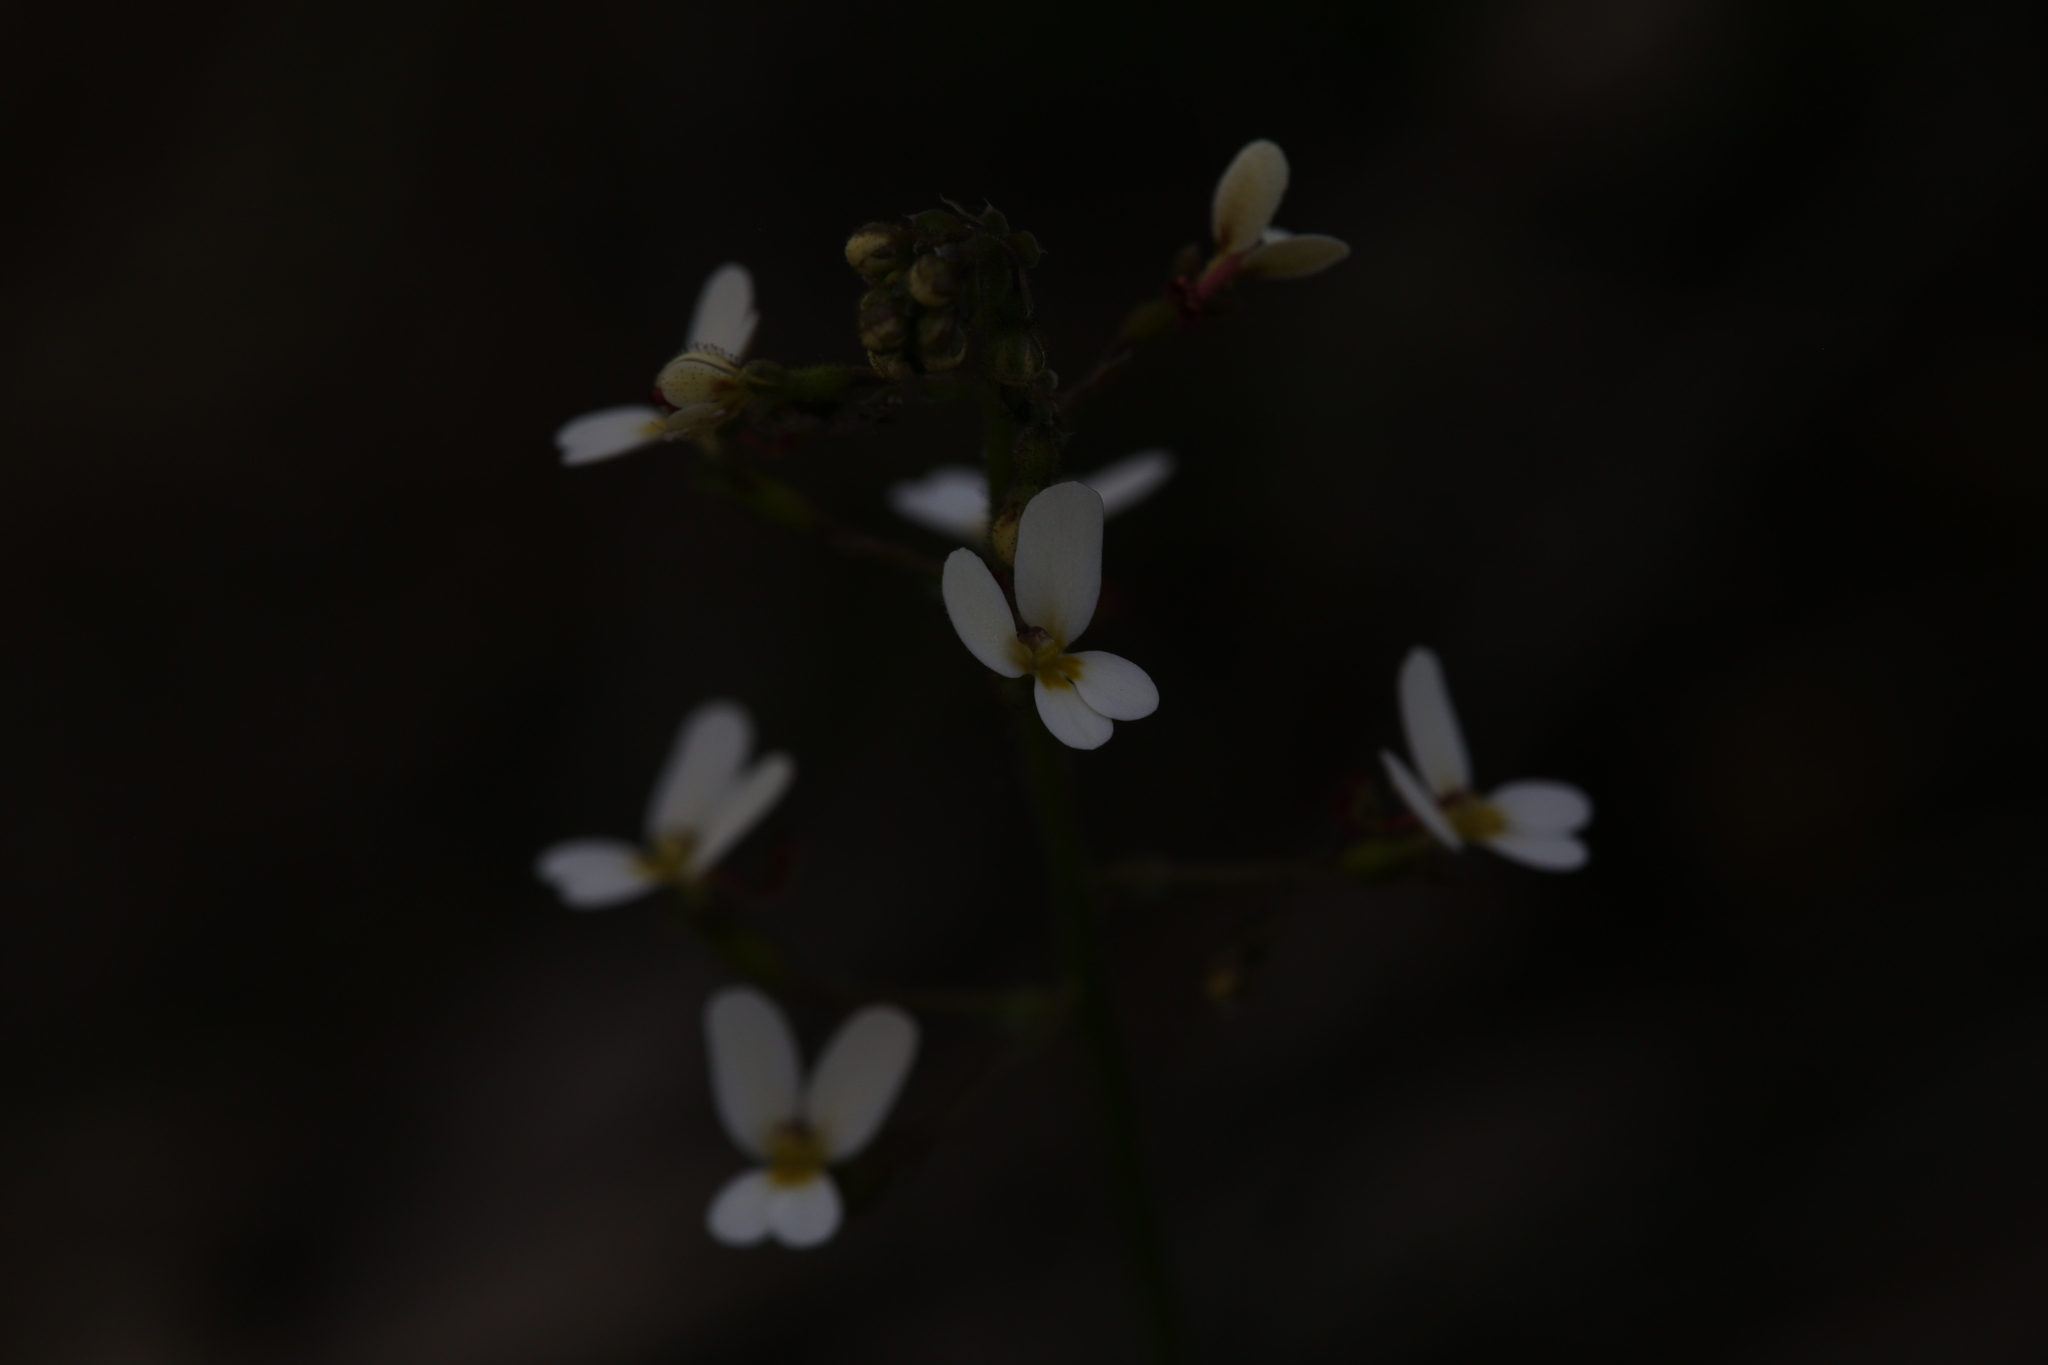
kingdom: Plantae
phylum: Tracheophyta
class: Magnoliopsida
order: Asterales
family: Stylidiaceae
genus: Stylidium
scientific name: Stylidium piliferum
